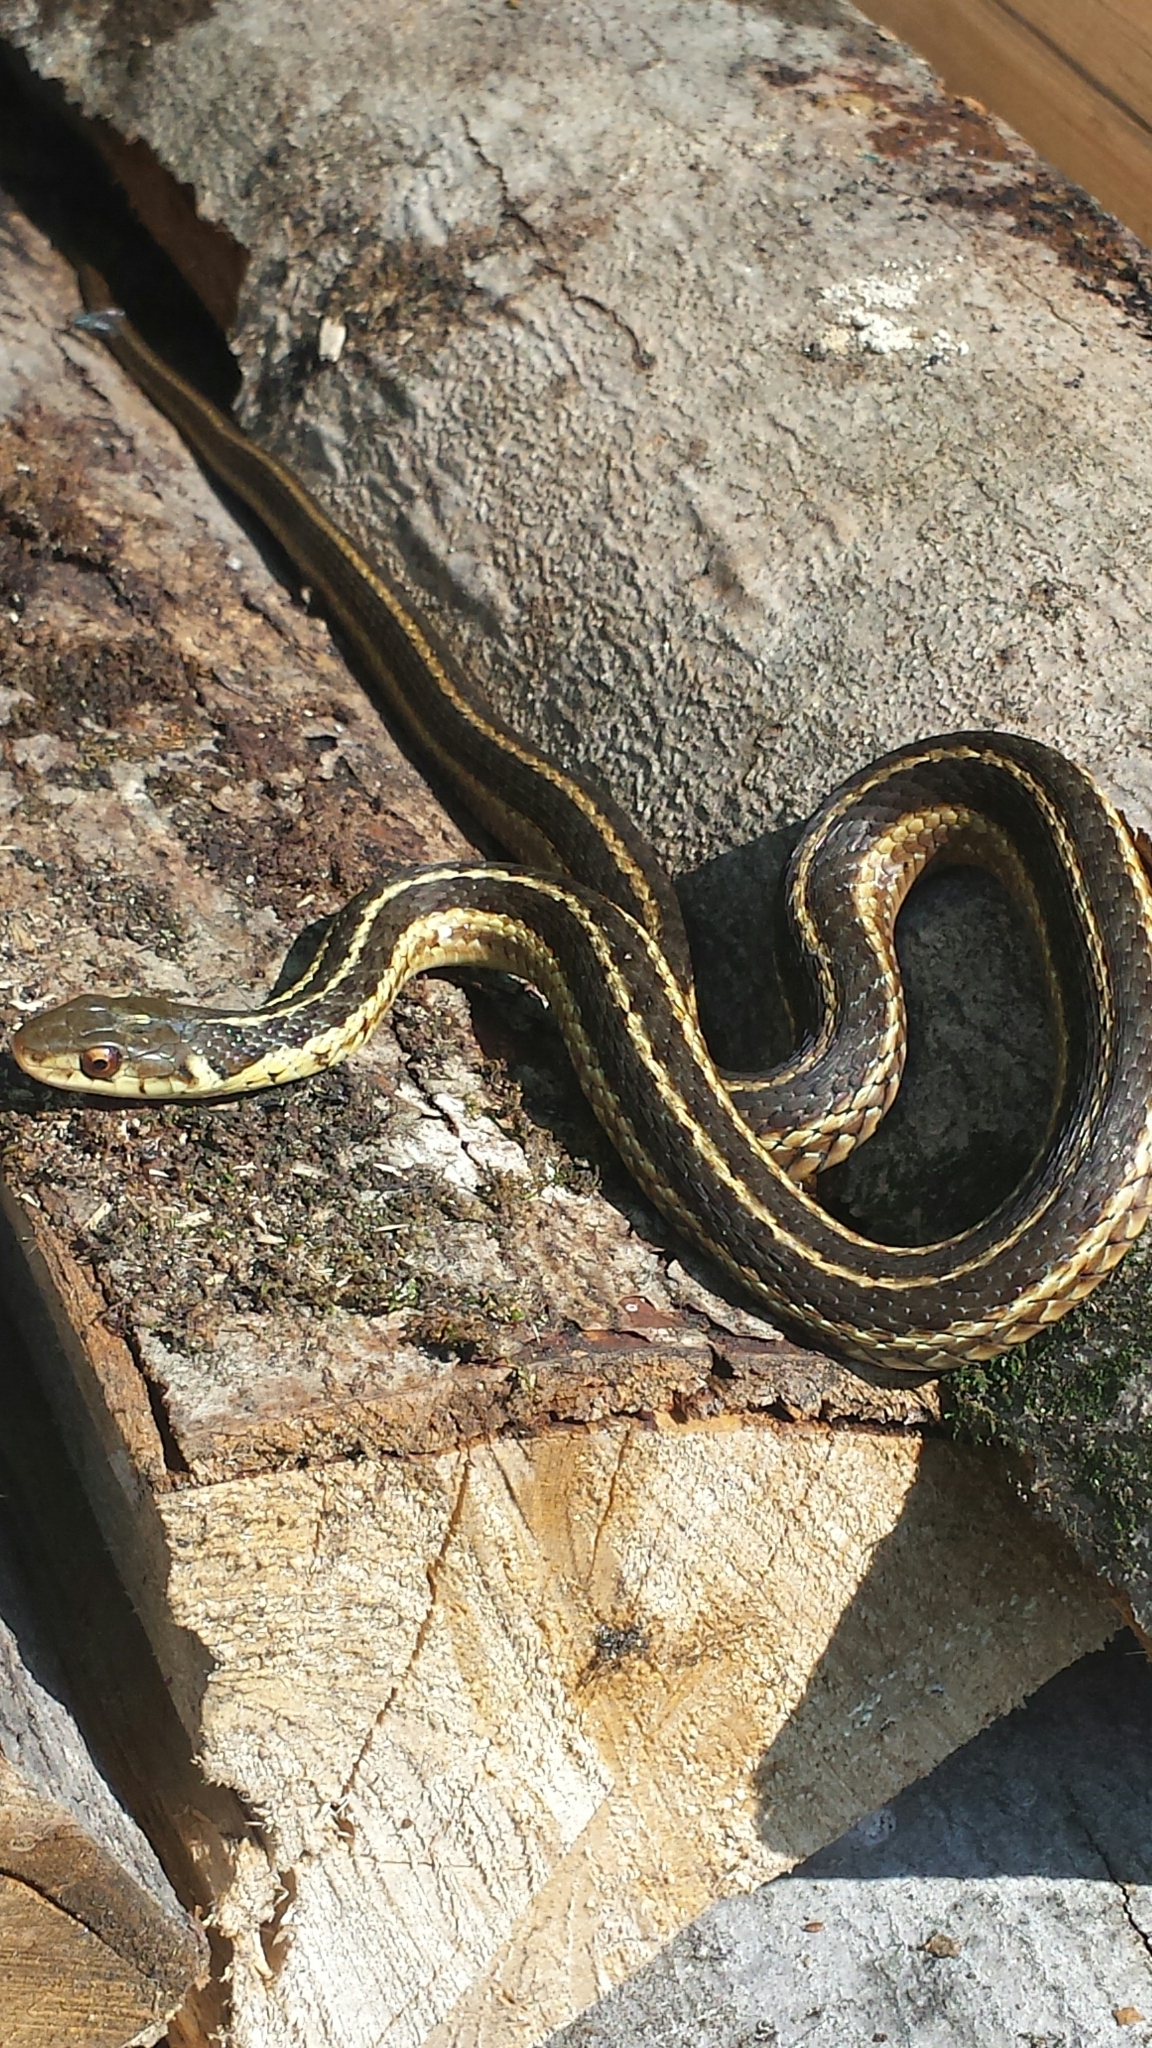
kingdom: Animalia
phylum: Chordata
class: Squamata
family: Colubridae
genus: Thamnophis
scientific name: Thamnophis sirtalis
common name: Common garter snake
